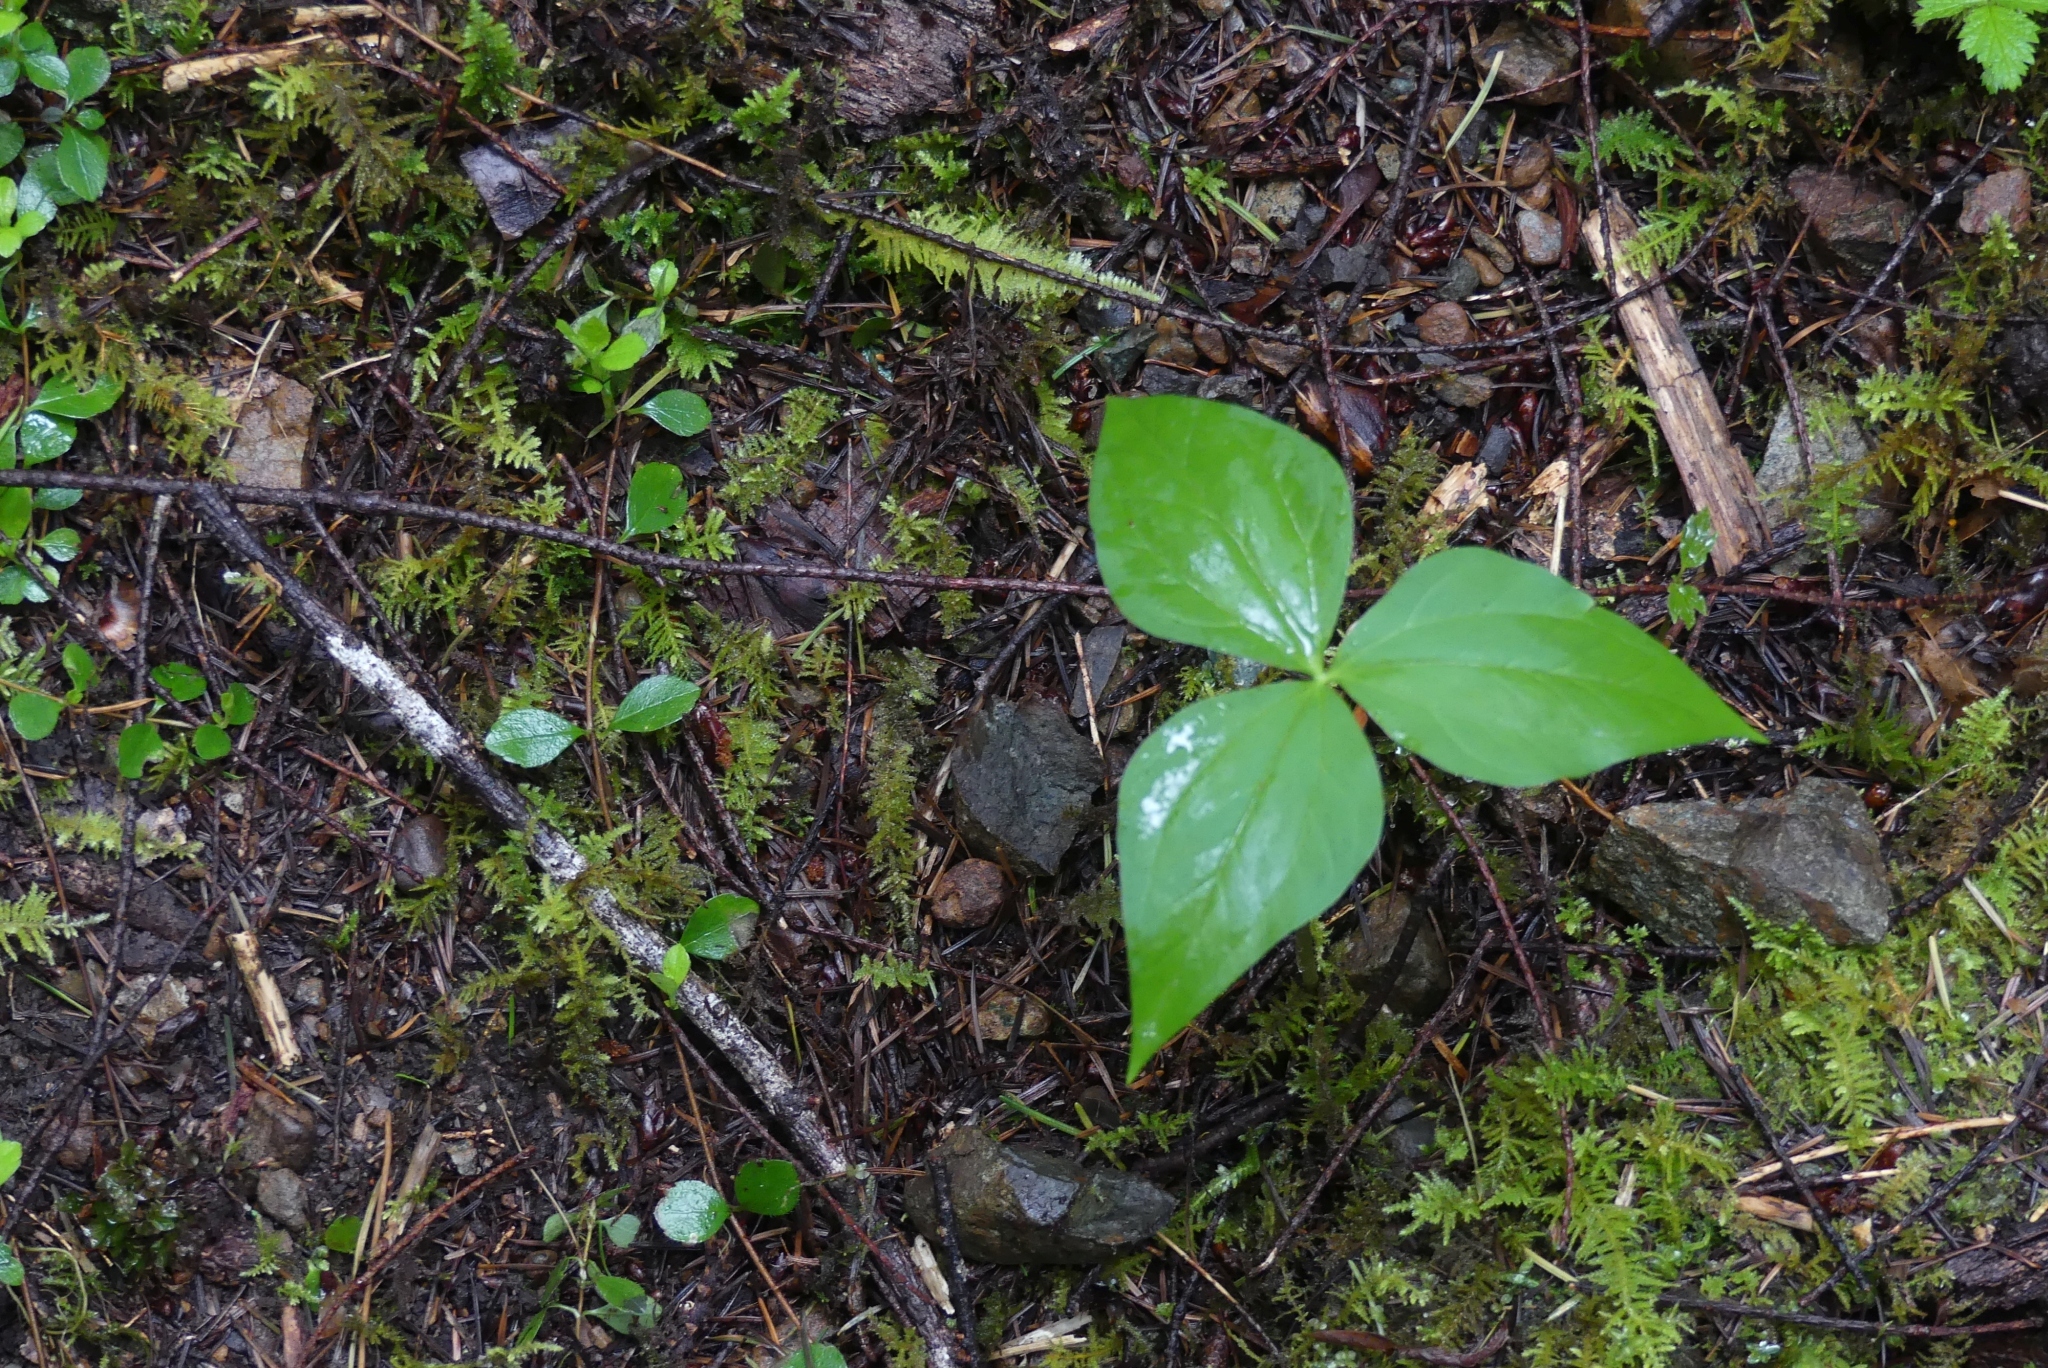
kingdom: Plantae
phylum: Tracheophyta
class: Liliopsida
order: Liliales
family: Melanthiaceae
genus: Trillium
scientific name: Trillium ovatum
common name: Pacific trillium
